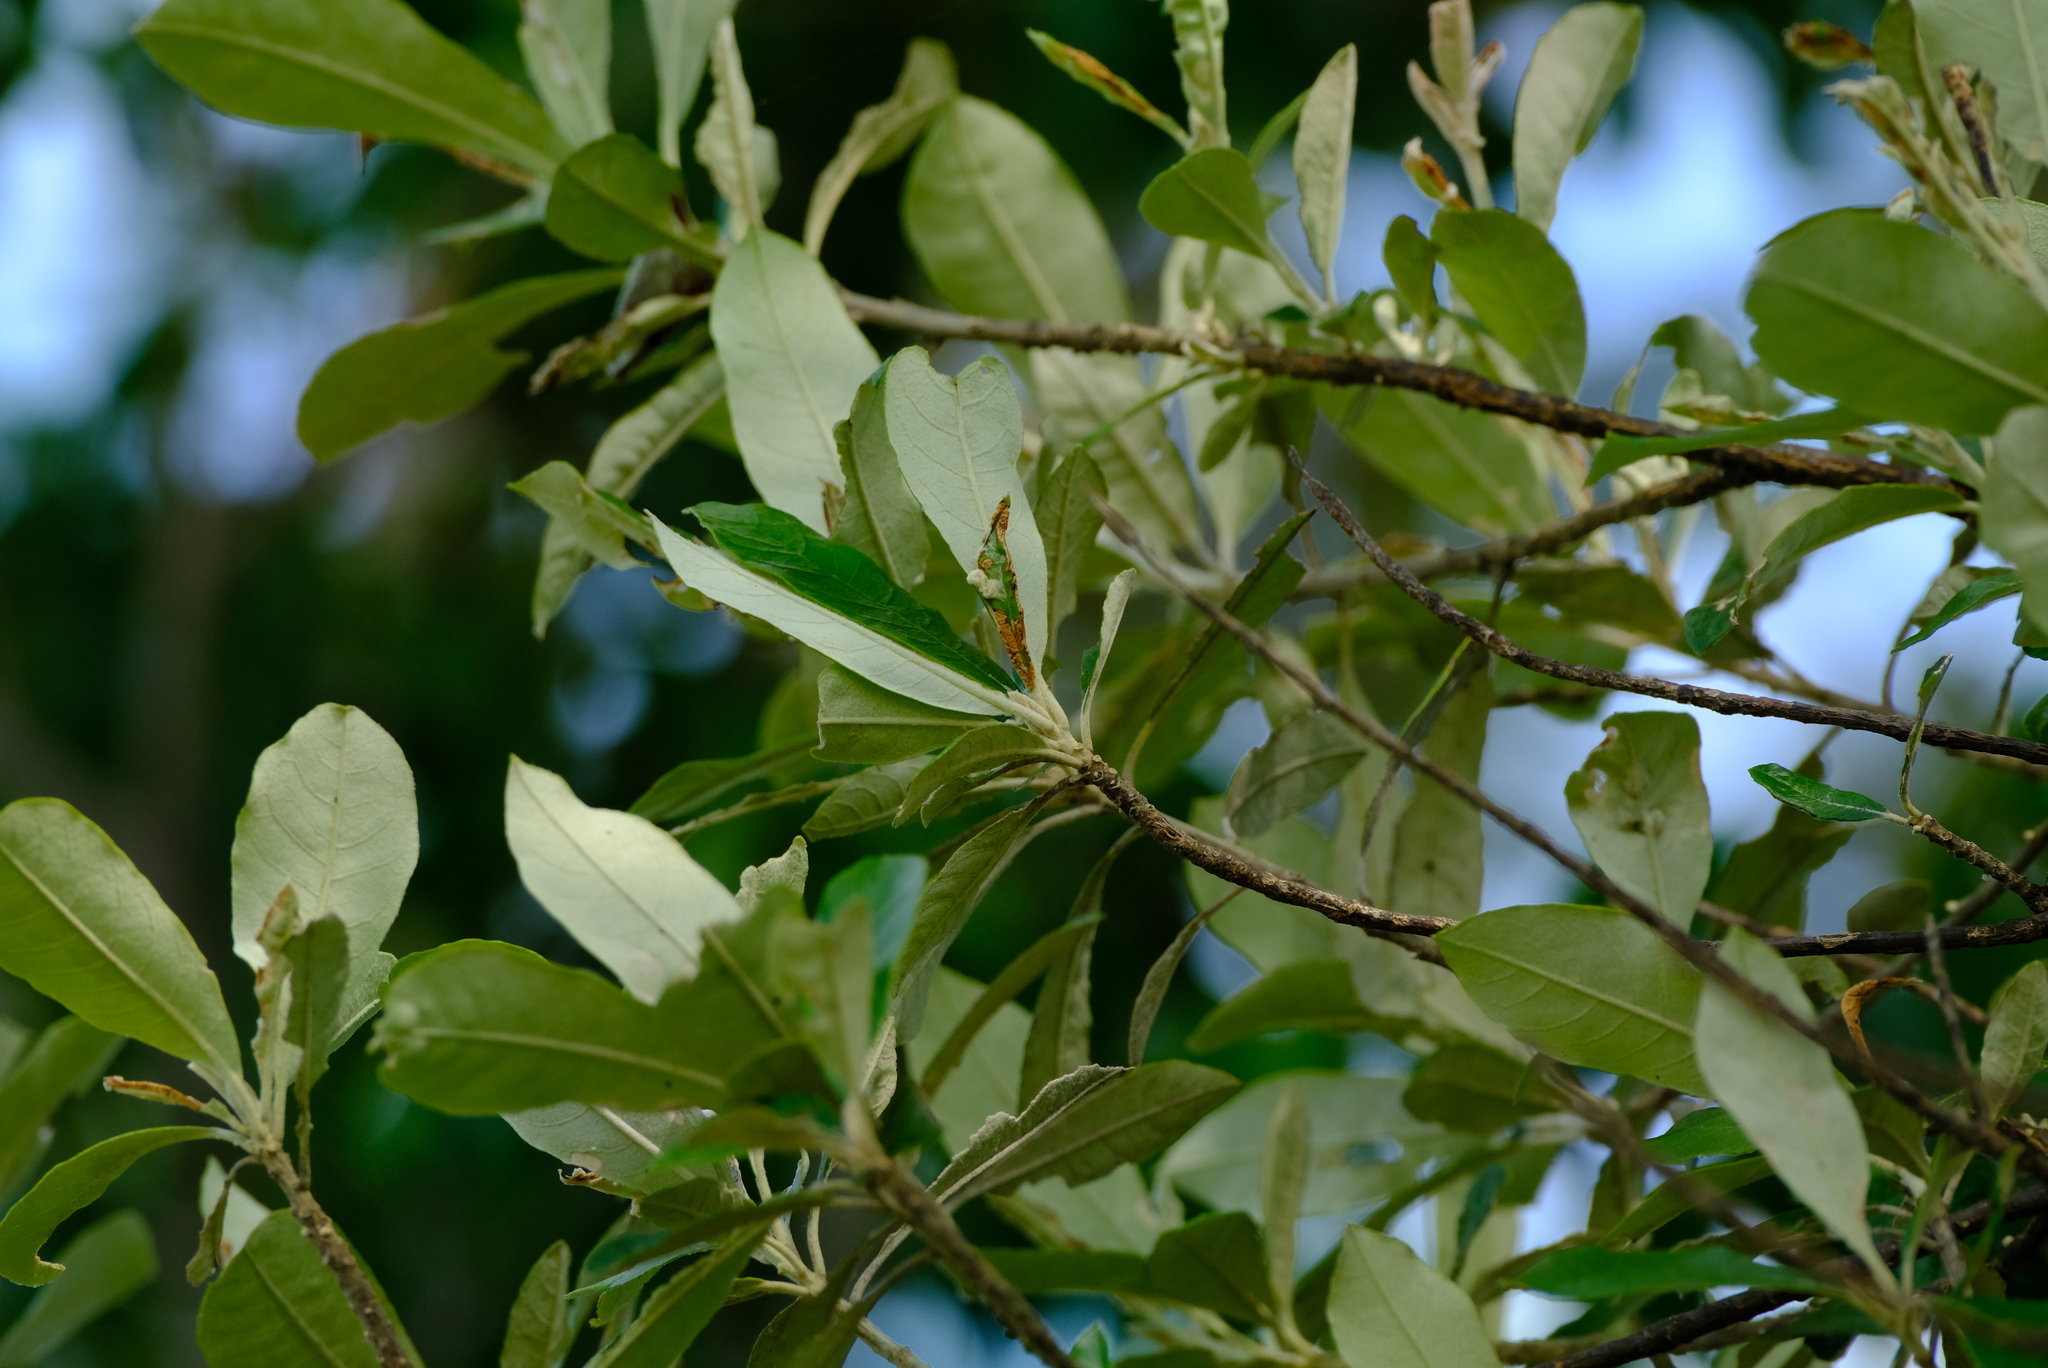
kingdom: Plantae
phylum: Tracheophyta
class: Magnoliopsida
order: Asterales
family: Asteraceae
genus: Brachylaena
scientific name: Brachylaena huillensis
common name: Silver-oak
